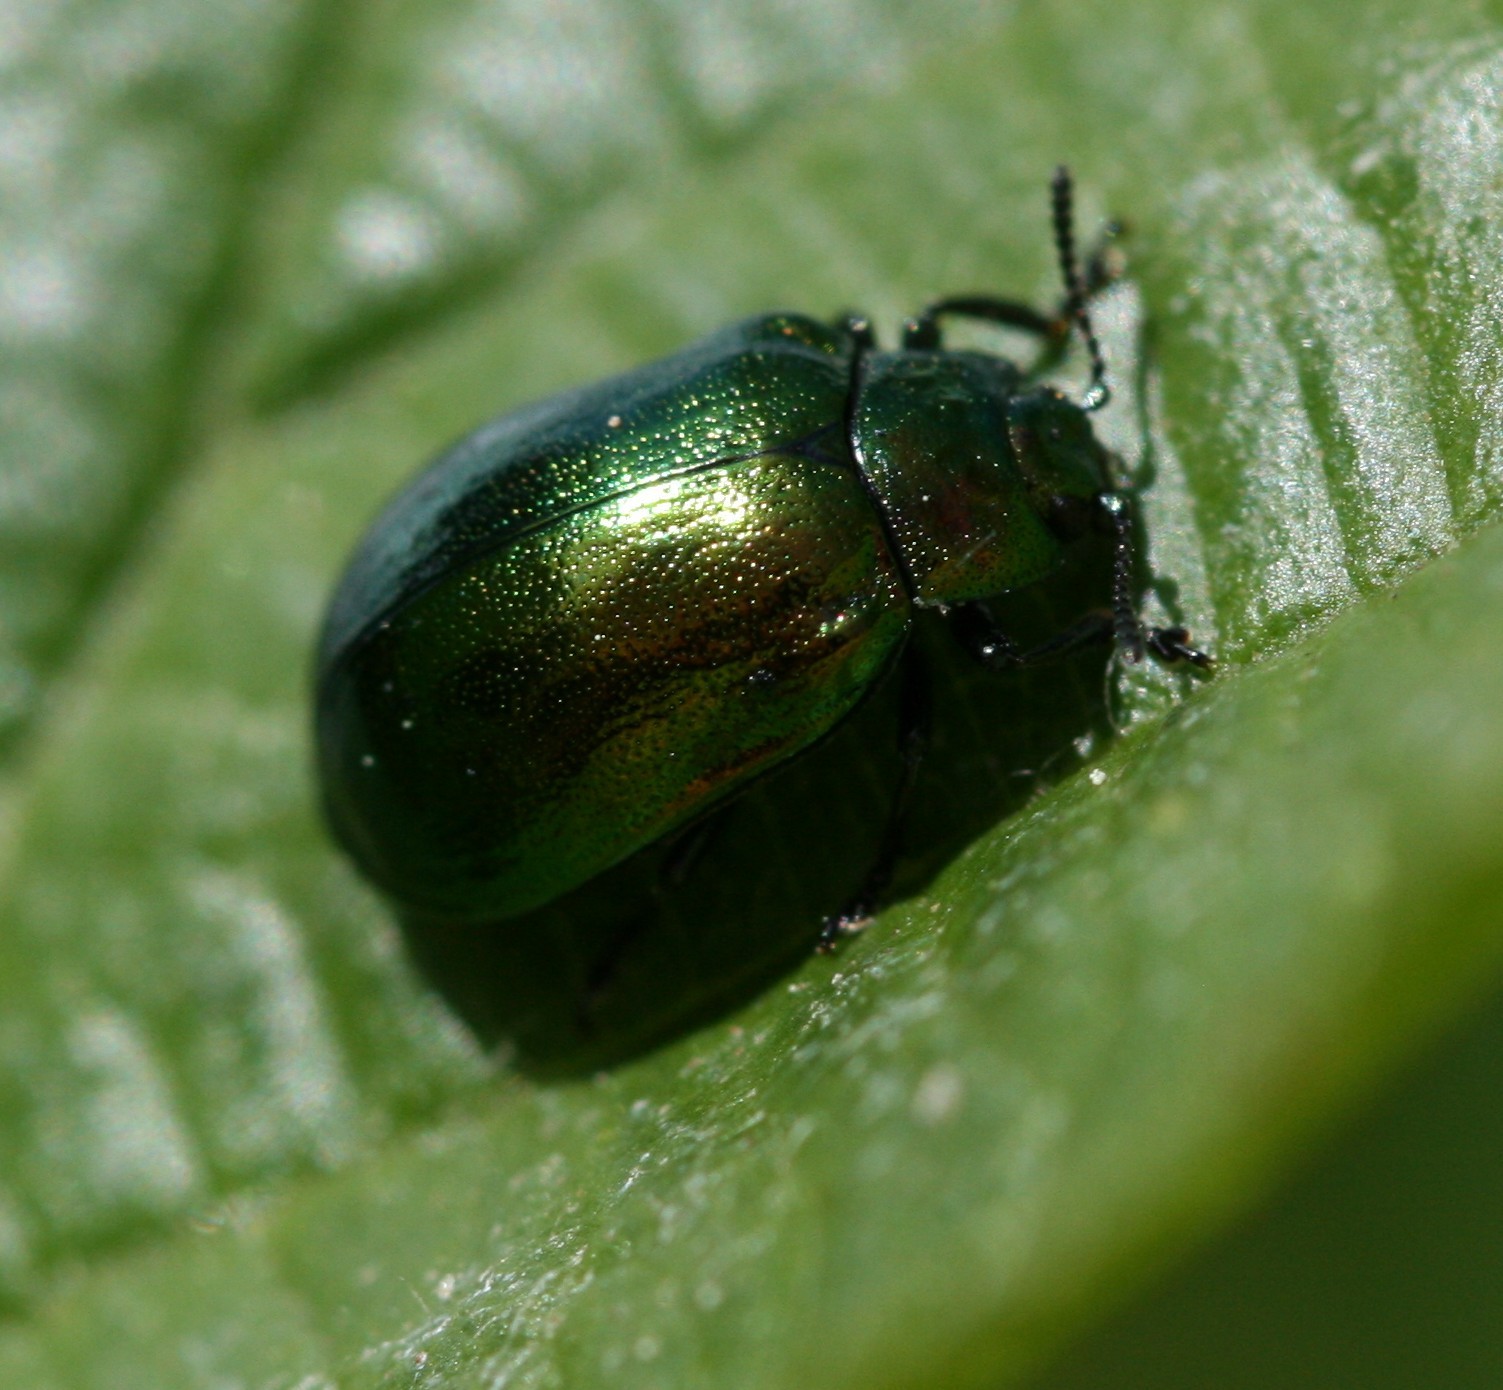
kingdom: Animalia
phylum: Arthropoda
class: Insecta
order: Coleoptera
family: Chrysomelidae
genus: Plagiosterna
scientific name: Plagiosterna aenea
